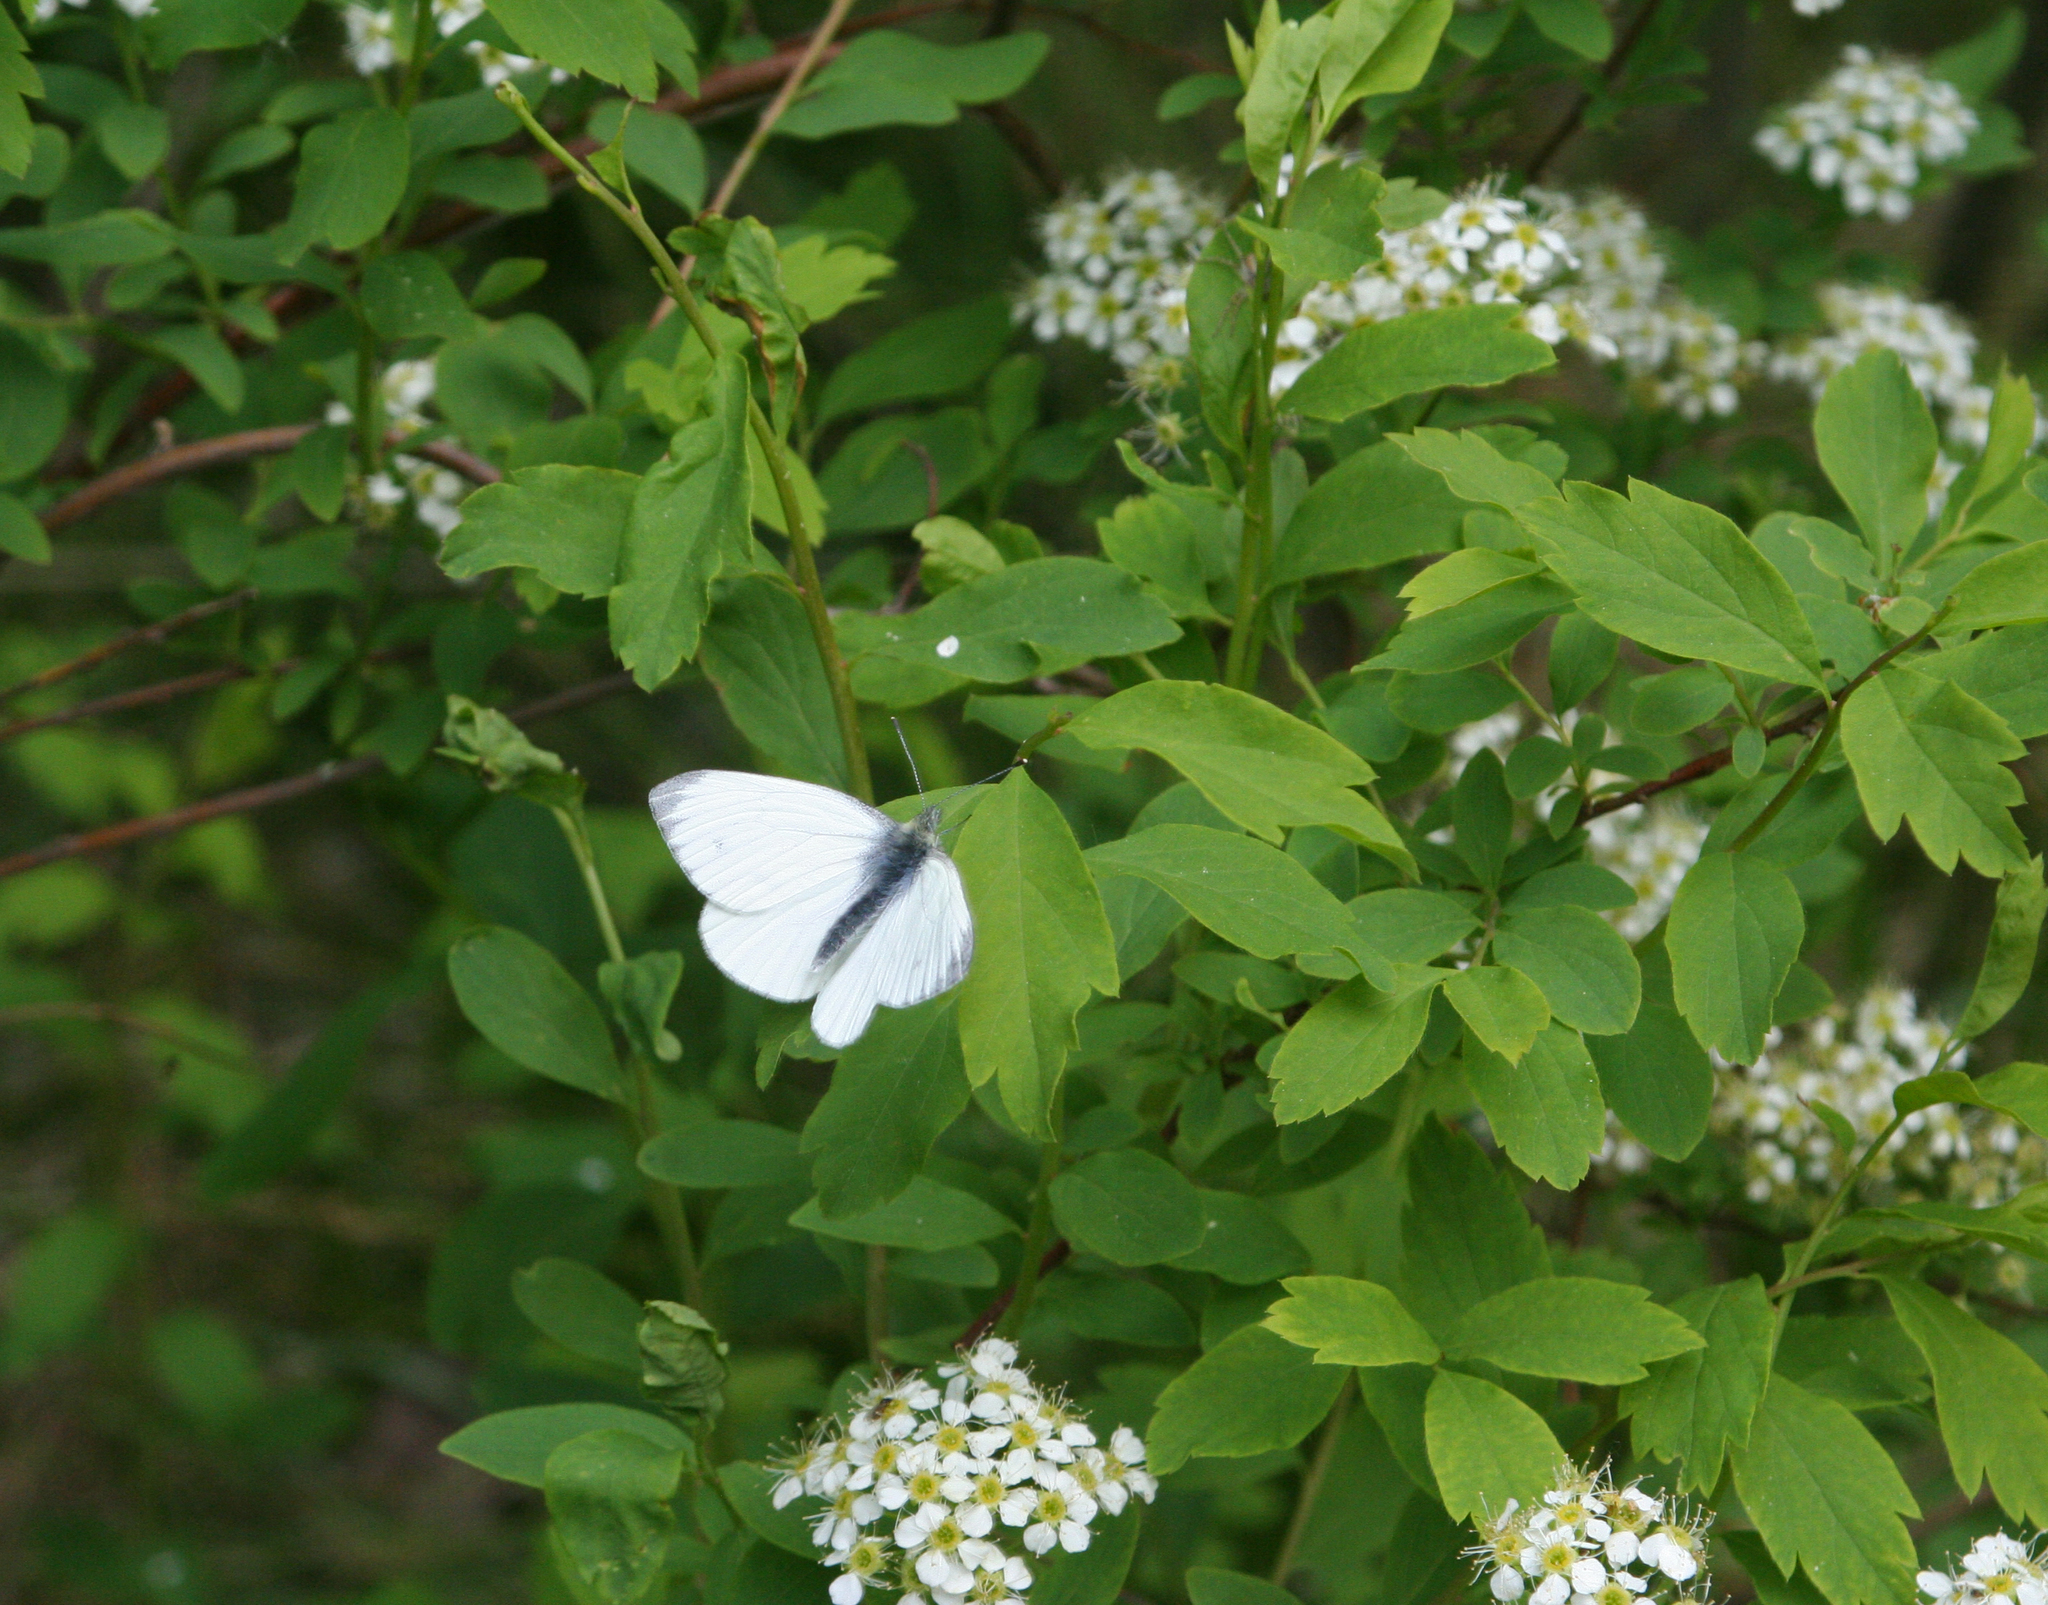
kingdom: Animalia
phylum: Arthropoda
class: Insecta
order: Lepidoptera
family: Pieridae
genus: Pieris
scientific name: Pieris napi
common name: Green-veined white
